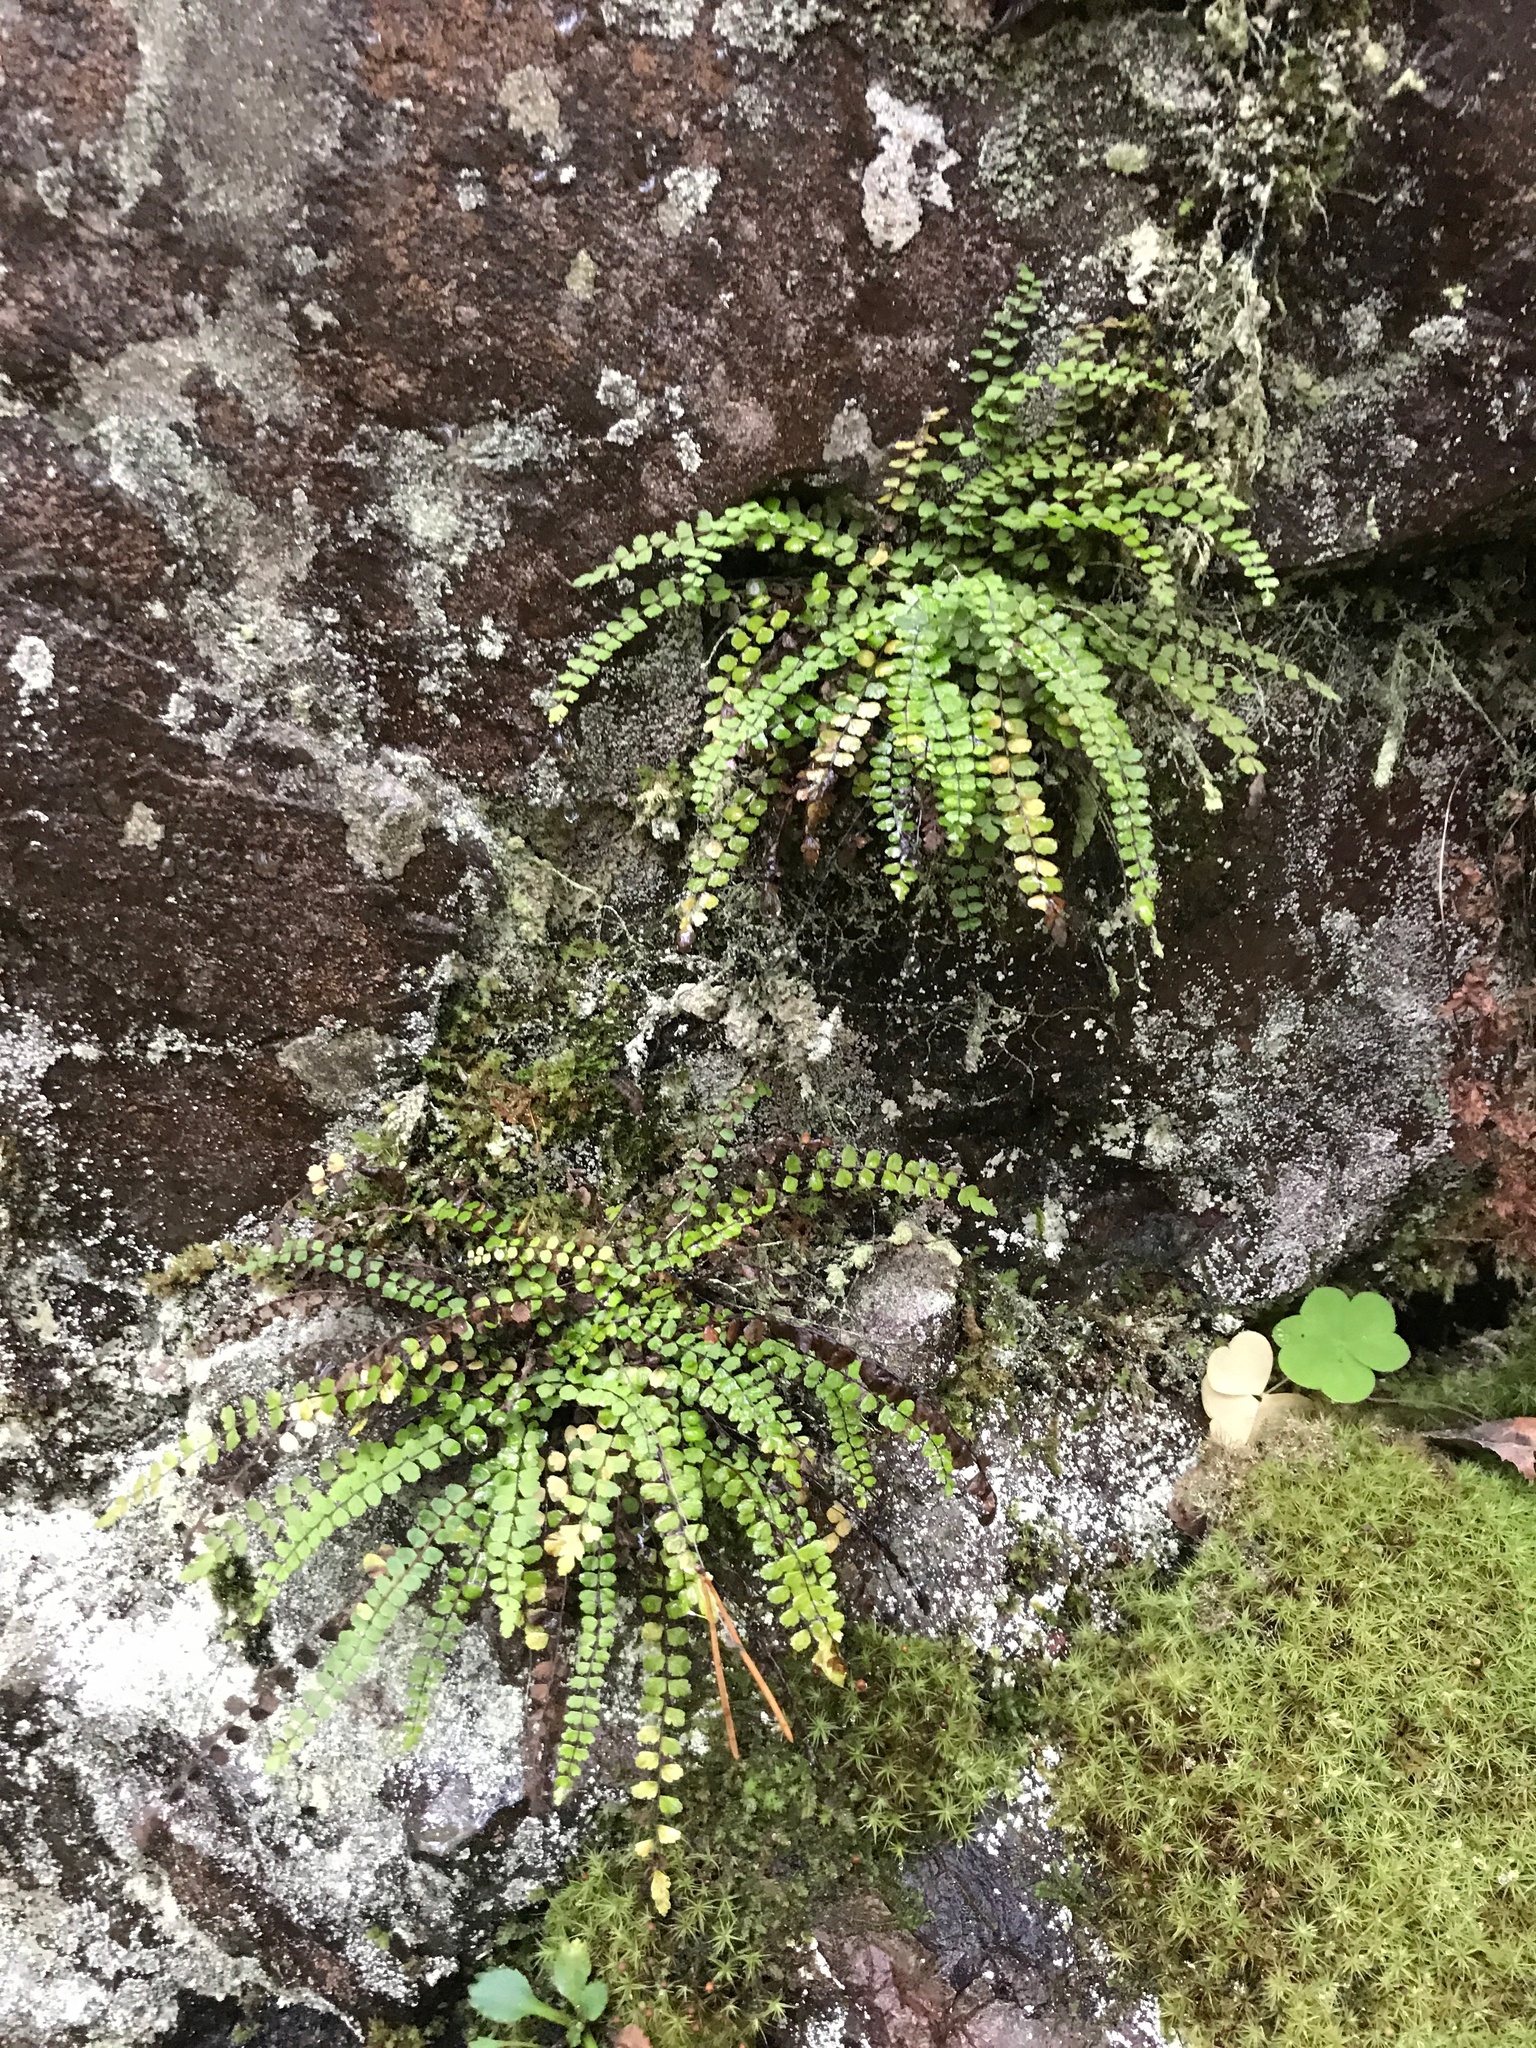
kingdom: Plantae
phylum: Tracheophyta
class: Polypodiopsida
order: Polypodiales
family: Aspleniaceae
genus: Asplenium
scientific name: Asplenium trichomanes
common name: Maidenhair spleenwort
